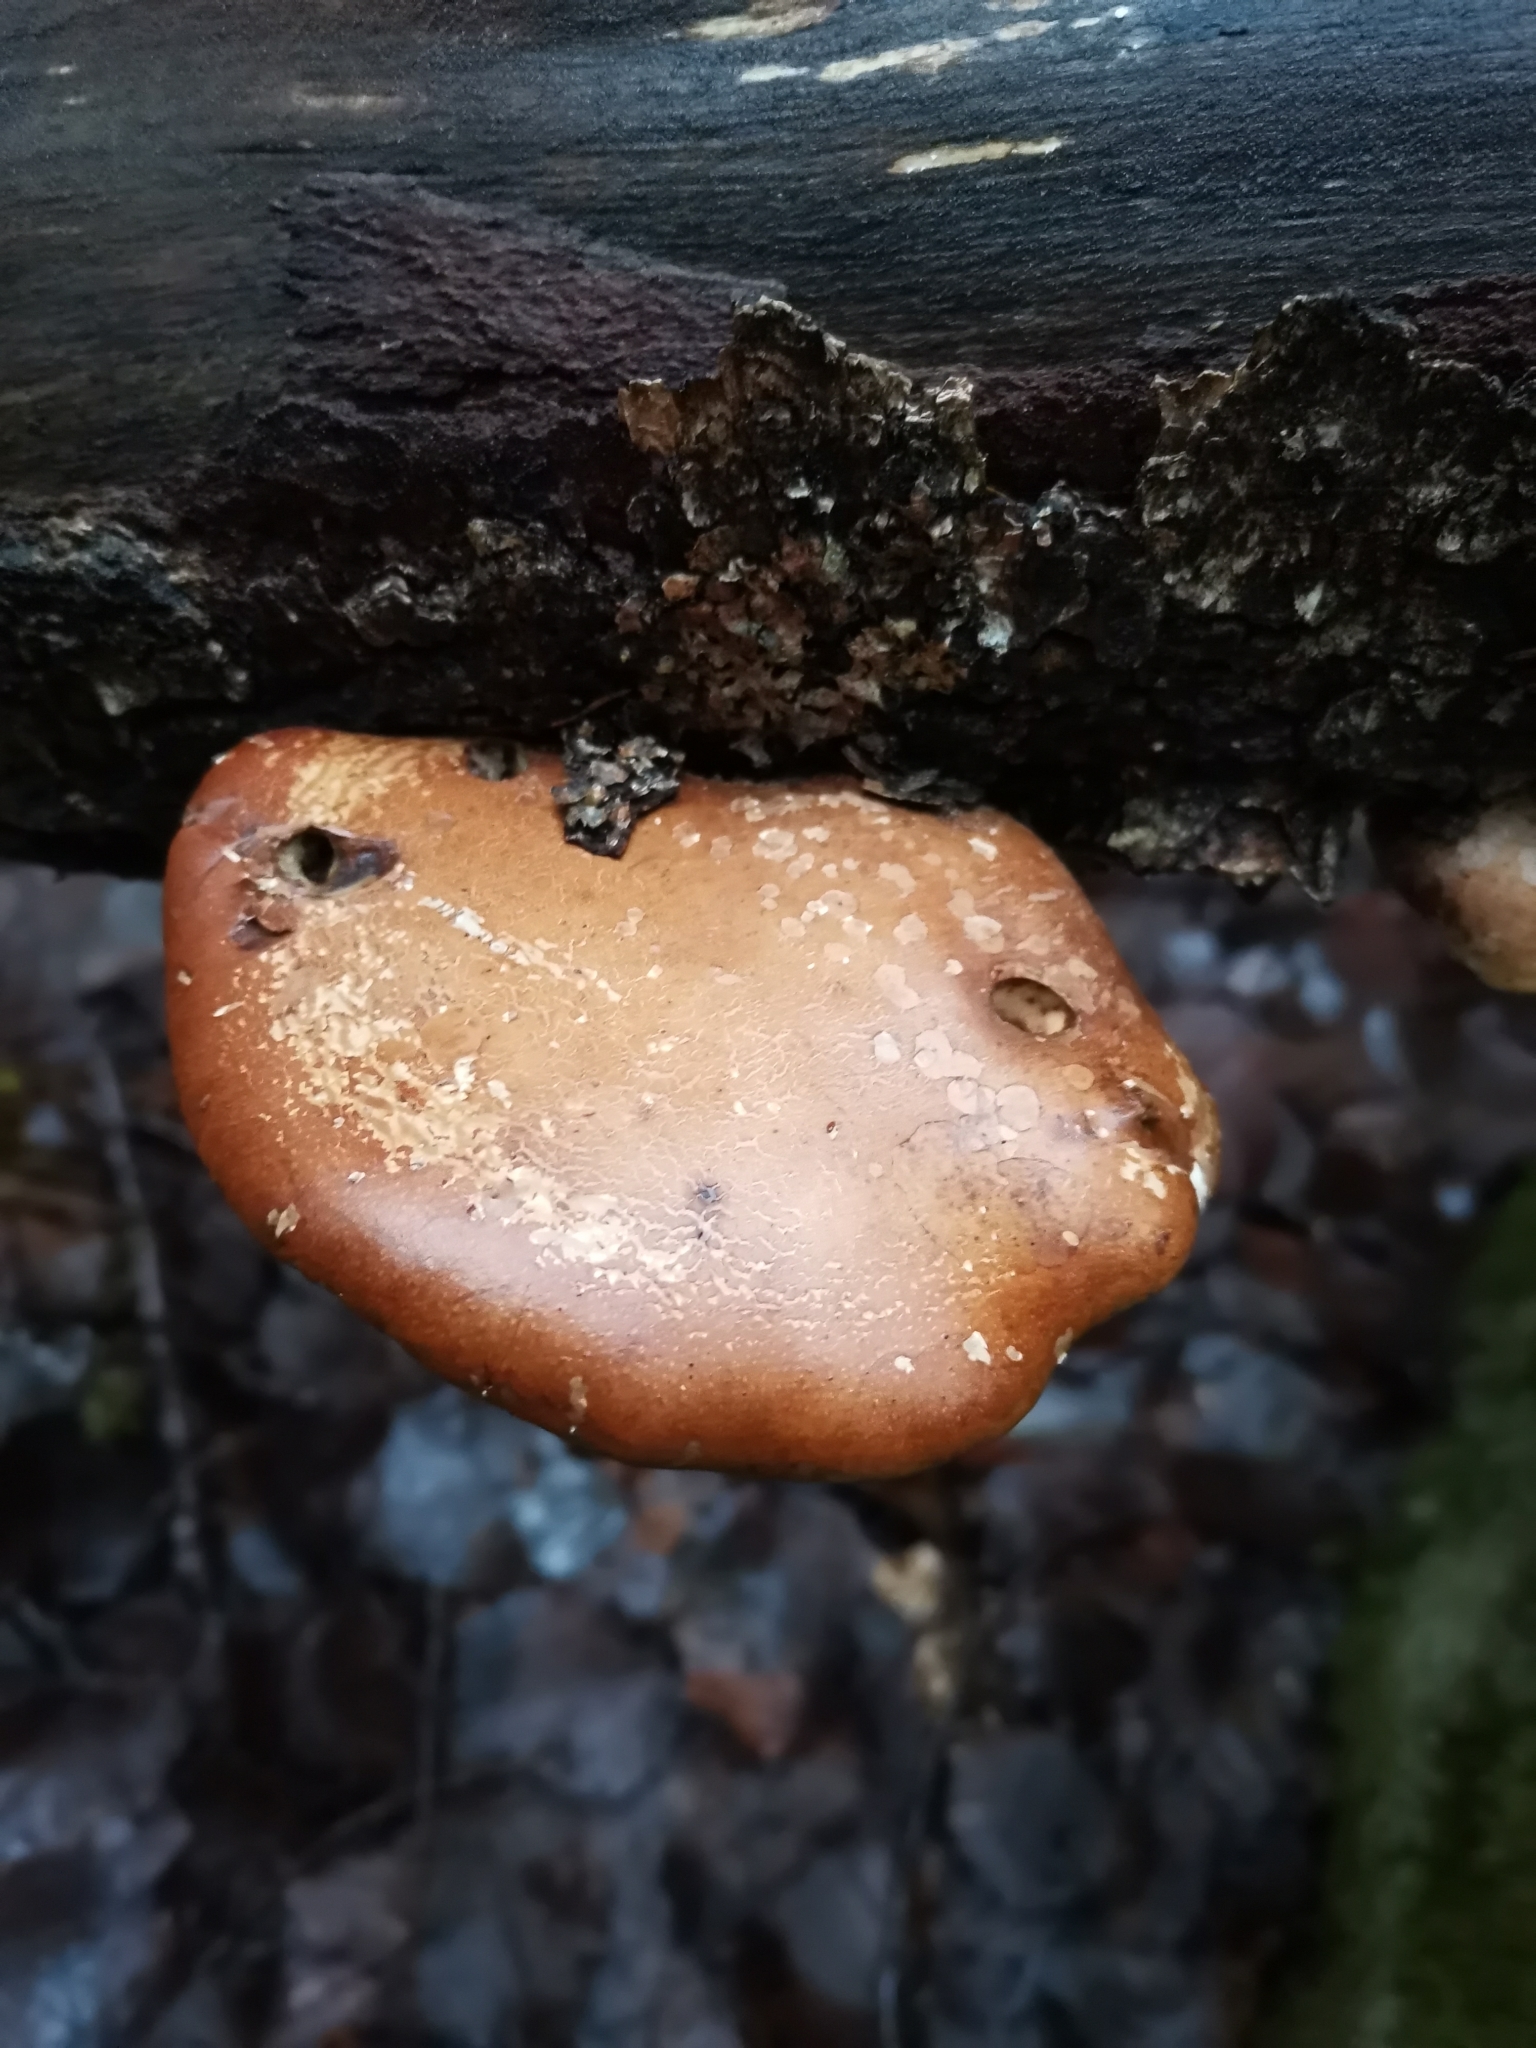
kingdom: Fungi
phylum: Basidiomycota
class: Agaricomycetes
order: Polyporales
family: Fomitopsidaceae
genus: Fomitopsis
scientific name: Fomitopsis betulina
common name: Birch polypore
